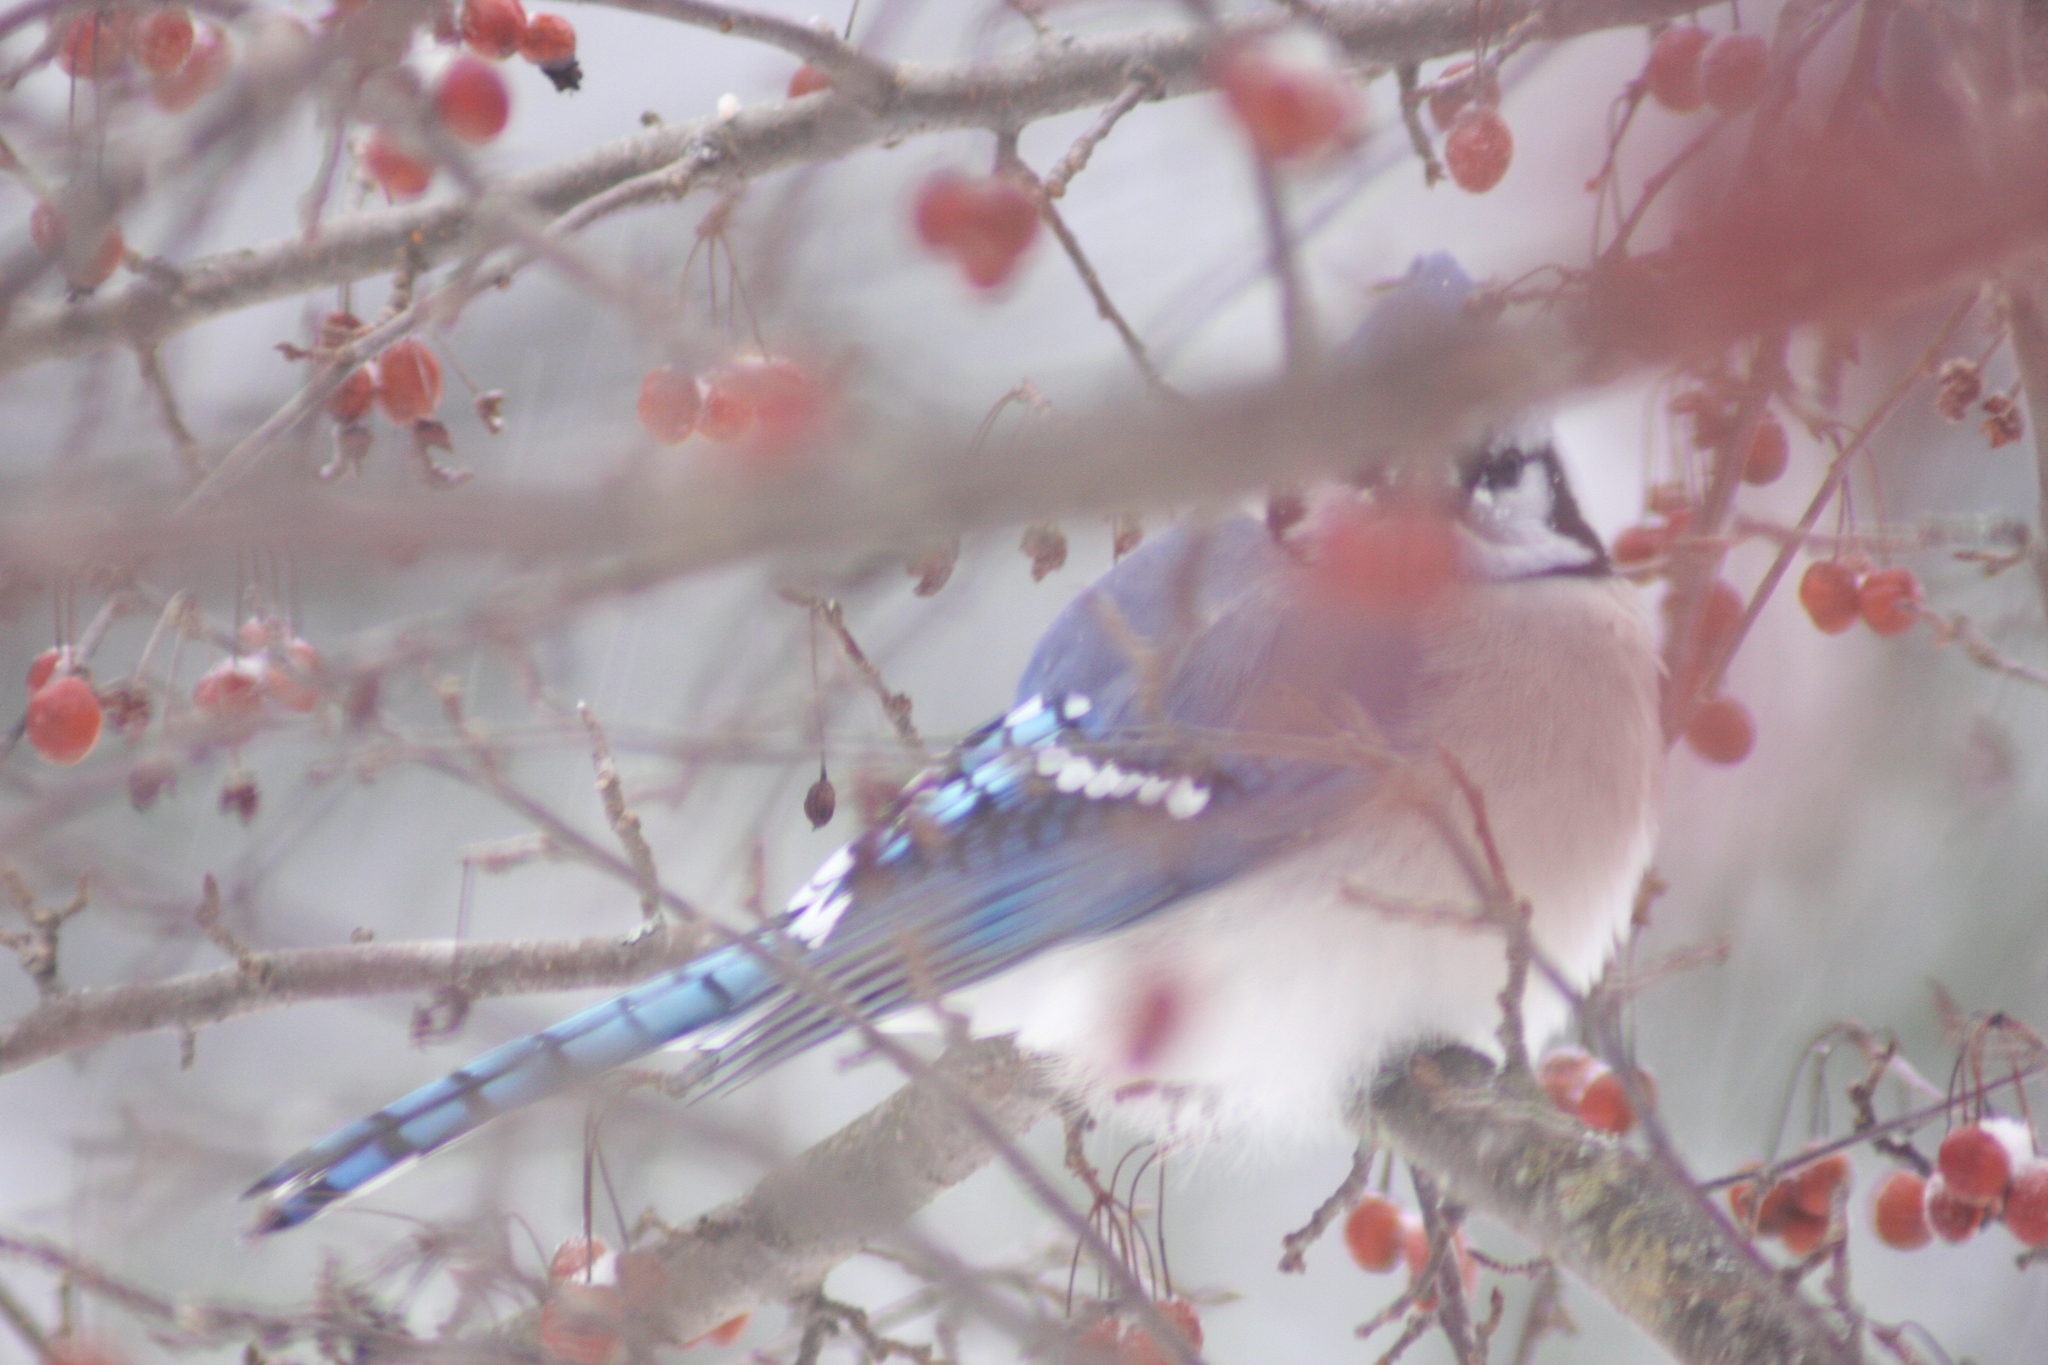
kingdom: Animalia
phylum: Chordata
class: Aves
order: Passeriformes
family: Corvidae
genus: Cyanocitta
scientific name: Cyanocitta cristata
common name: Blue jay
